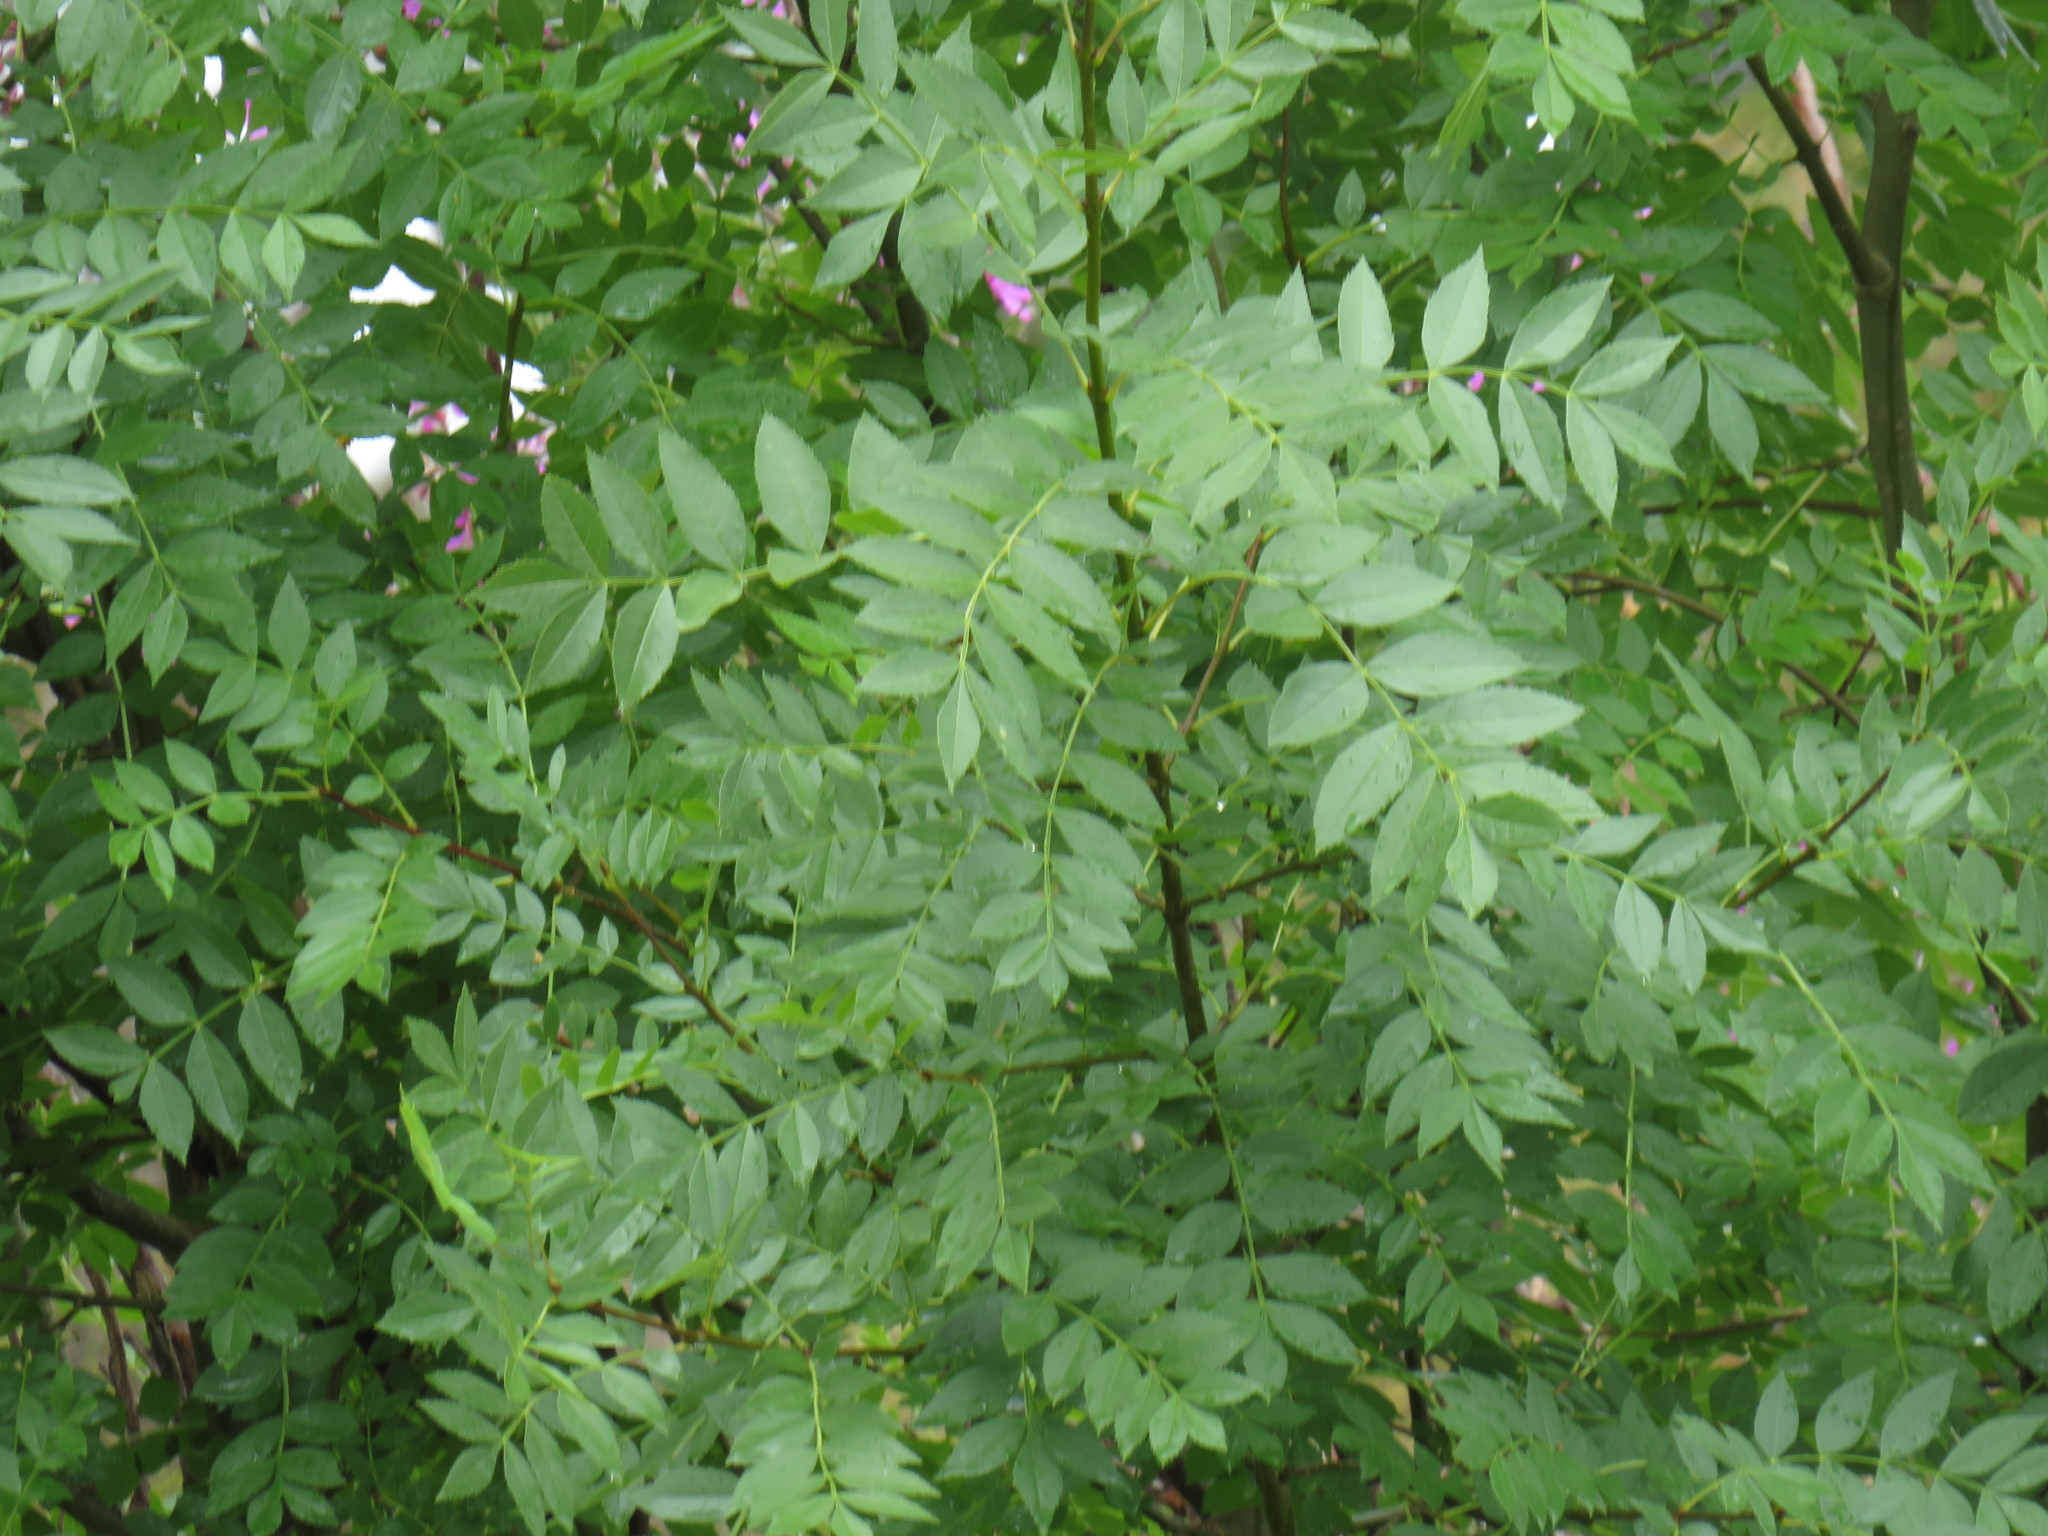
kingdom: Plantae
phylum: Tracheophyta
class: Magnoliopsida
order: Lamiales
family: Oleaceae
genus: Fraxinus
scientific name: Fraxinus excelsior
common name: European ash
